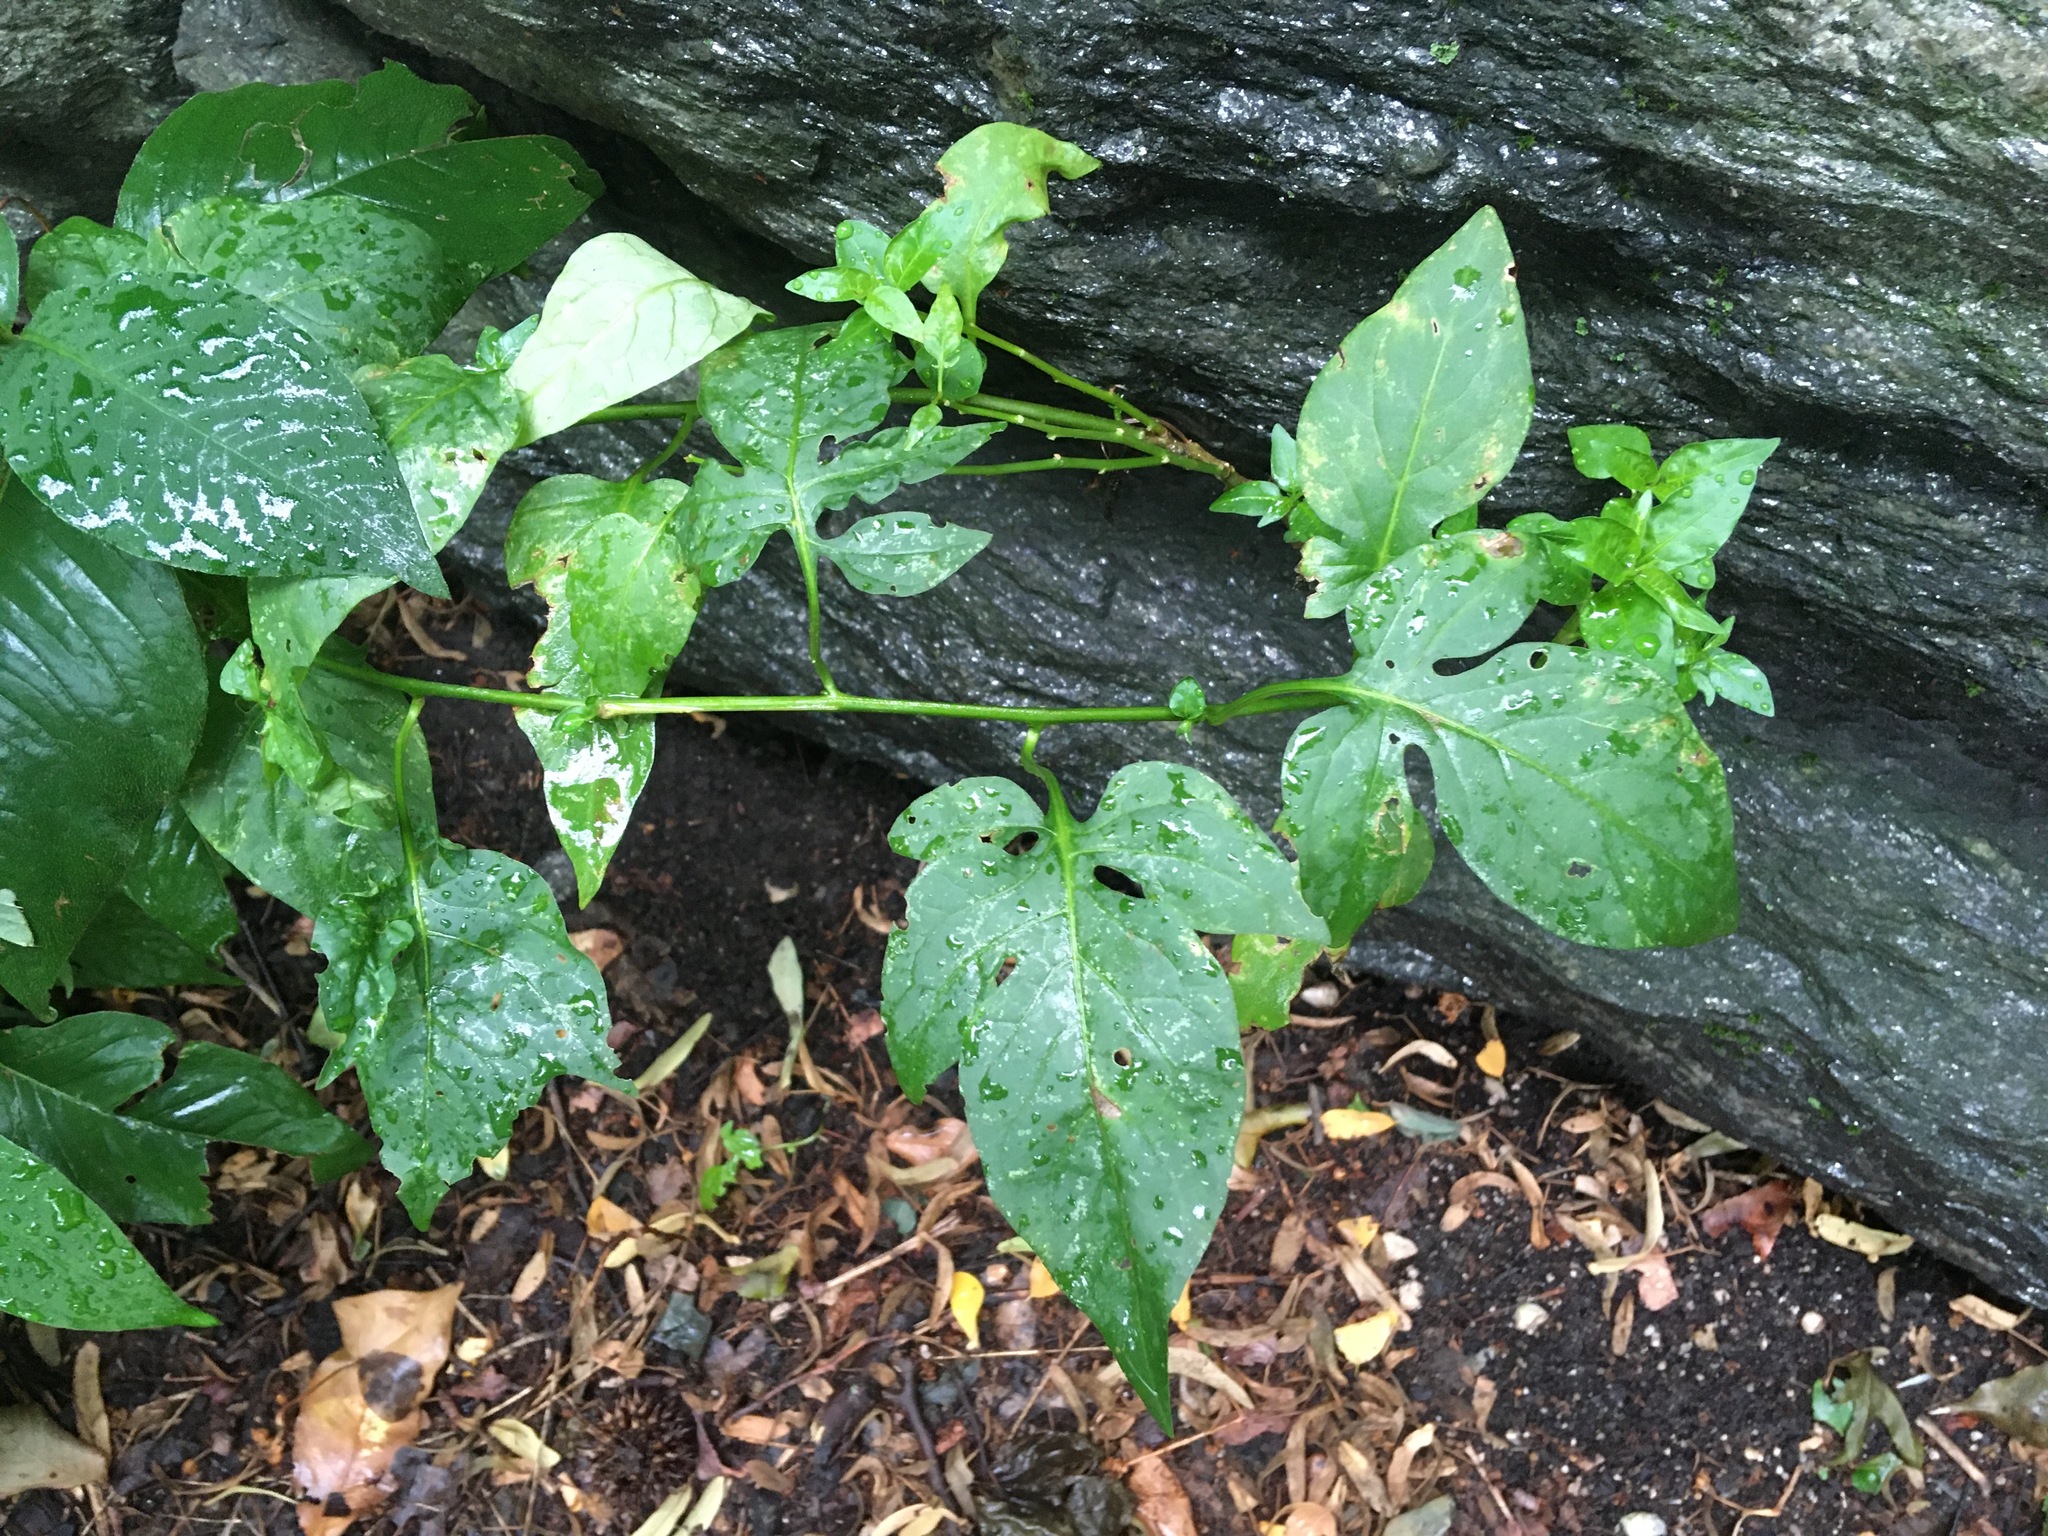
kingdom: Plantae
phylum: Tracheophyta
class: Magnoliopsida
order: Solanales
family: Solanaceae
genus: Solanum
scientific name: Solanum dulcamara
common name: Climbing nightshade
